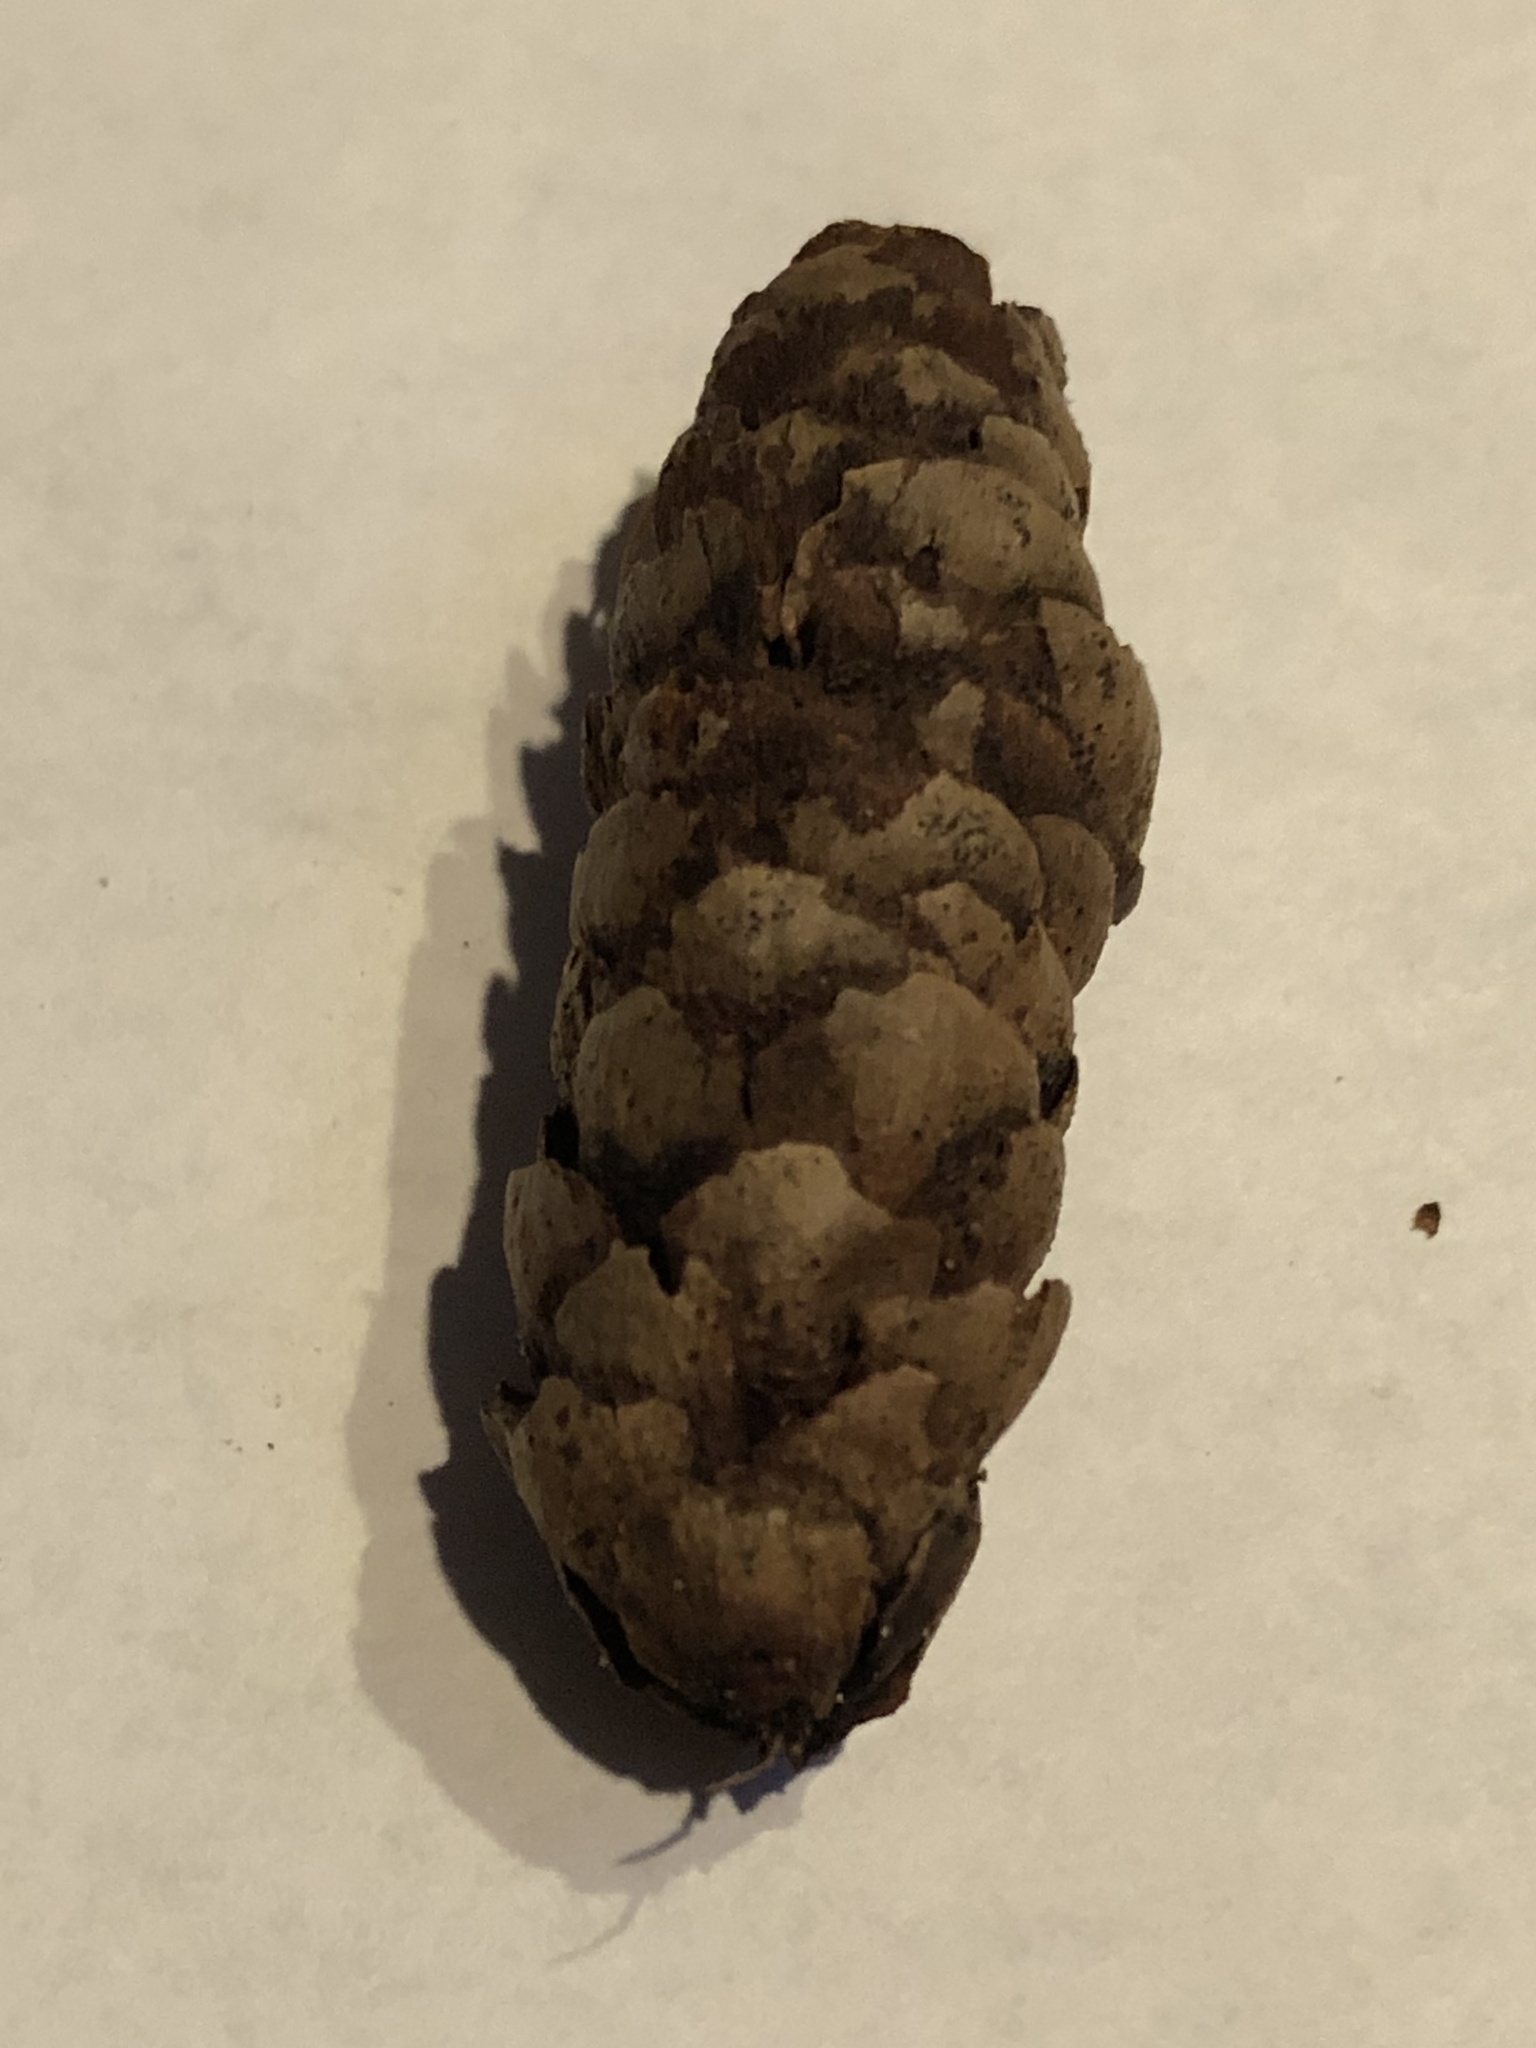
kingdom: Plantae
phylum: Tracheophyta
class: Pinopsida
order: Pinales
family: Pinaceae
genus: Picea
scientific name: Picea glauca
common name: White spruce
